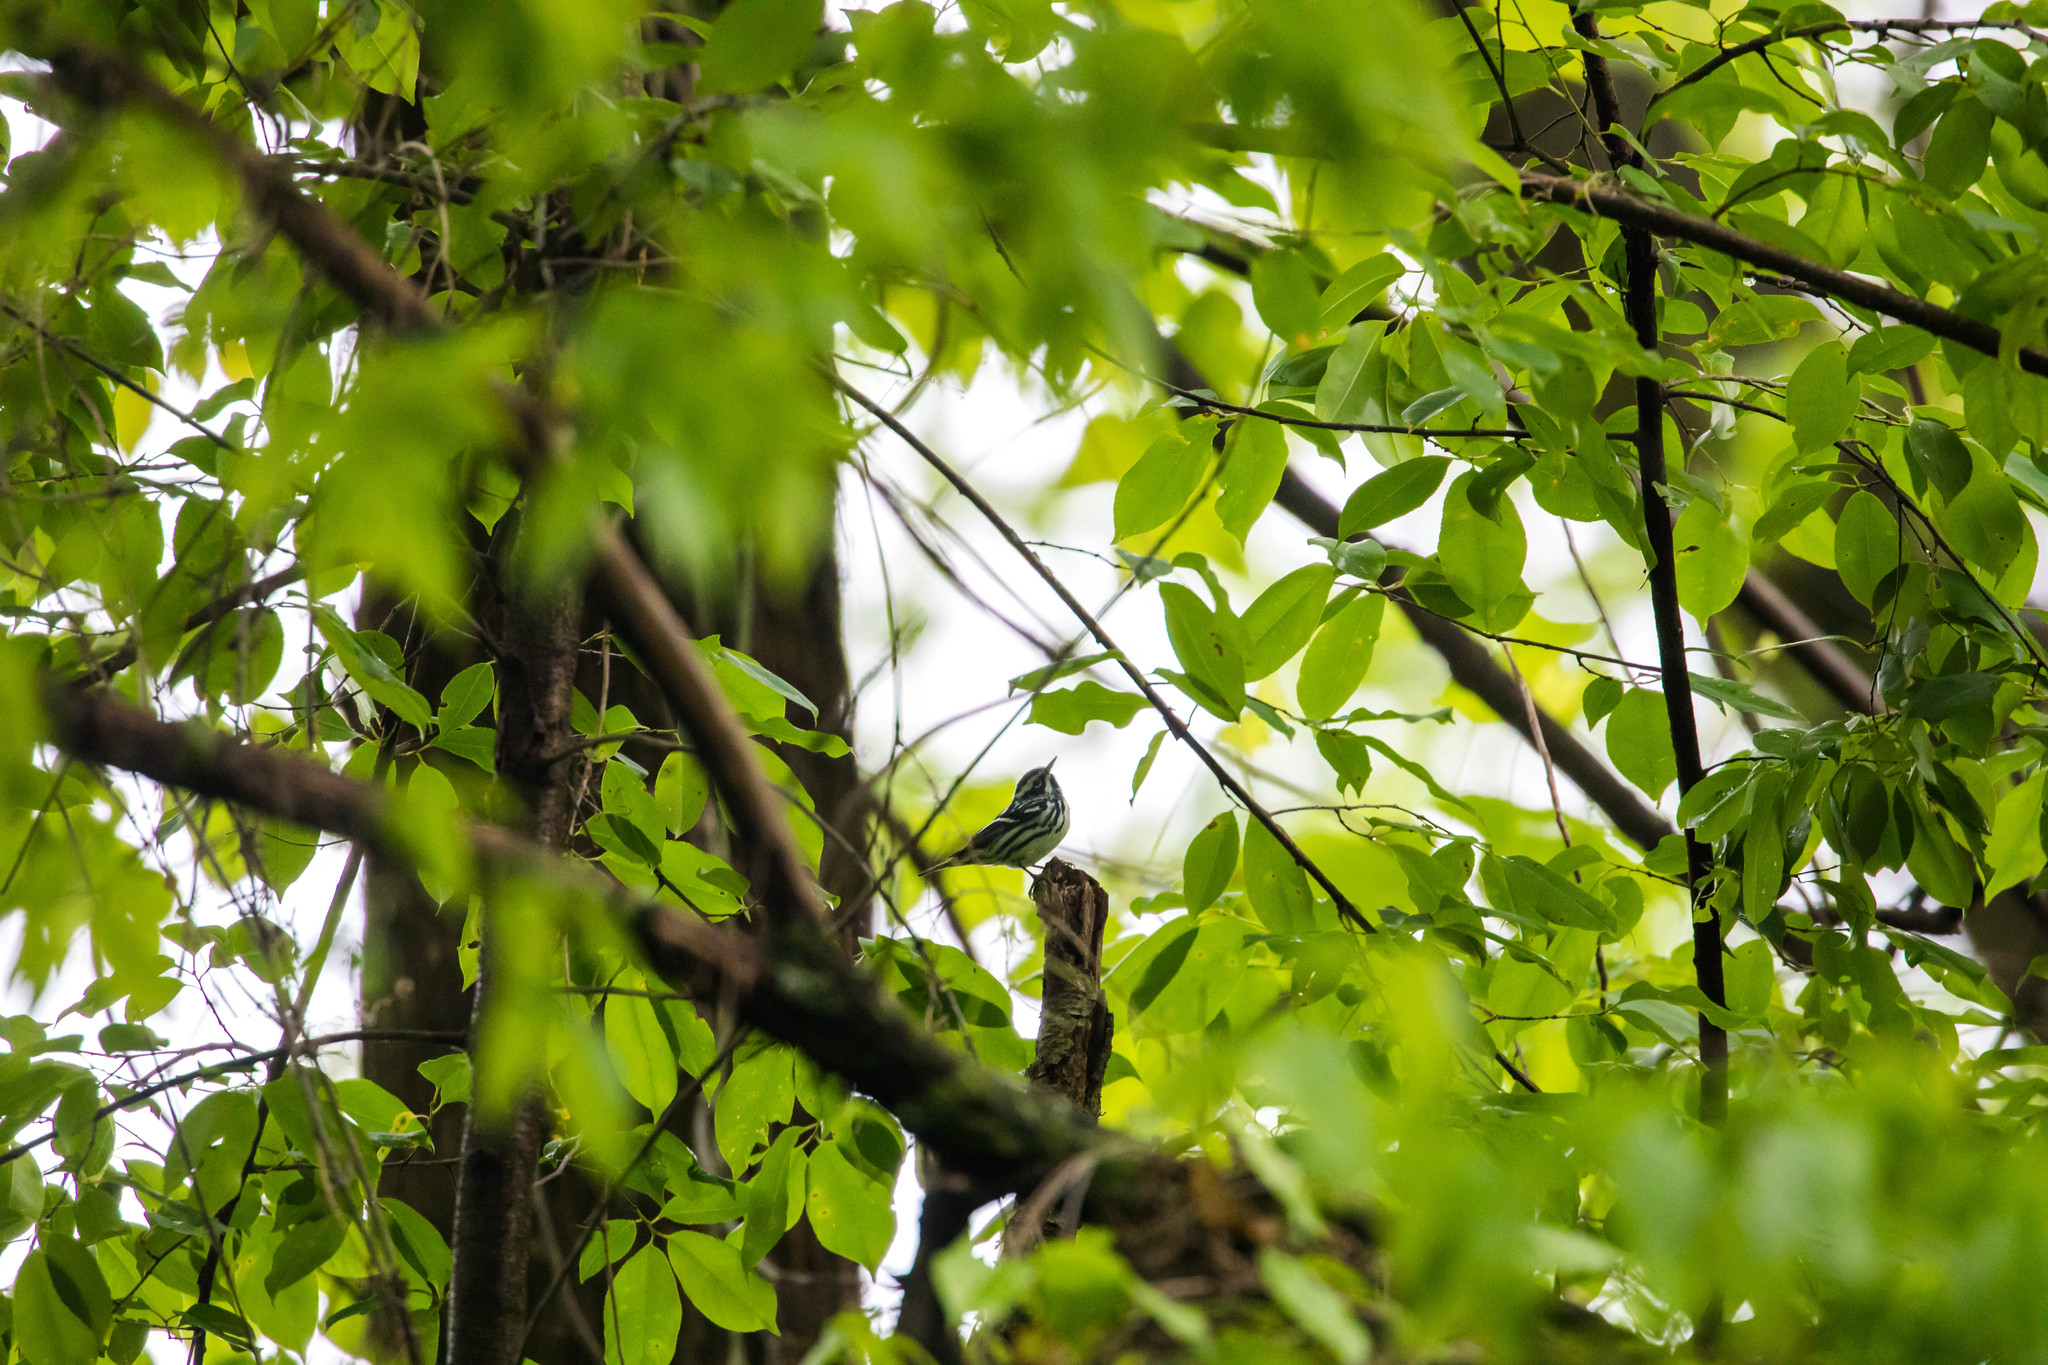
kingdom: Animalia
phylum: Chordata
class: Aves
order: Passeriformes
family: Parulidae
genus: Mniotilta
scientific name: Mniotilta varia
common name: Black-and-white warbler
